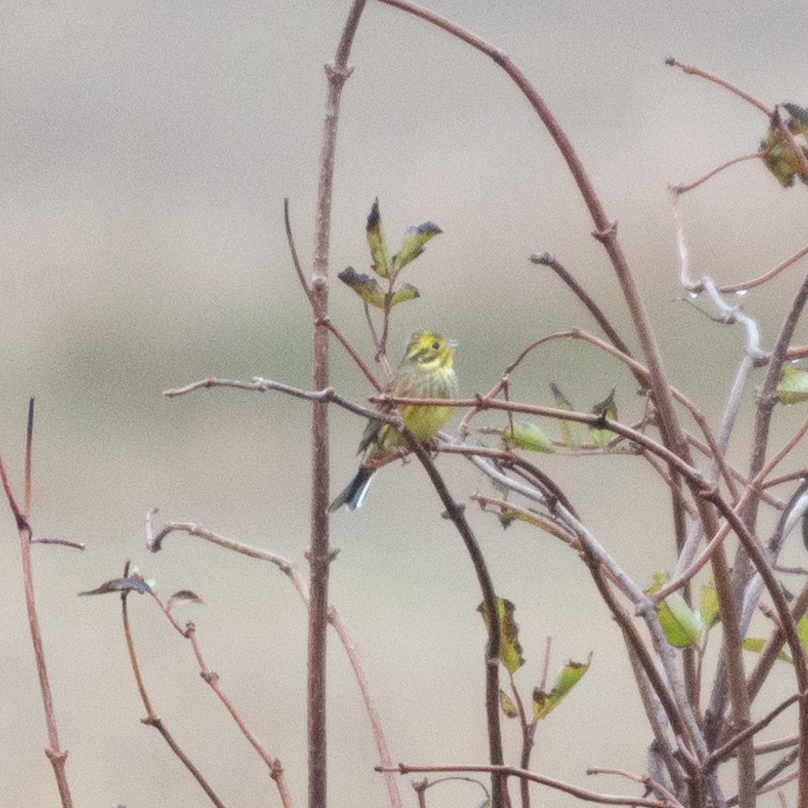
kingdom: Animalia
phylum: Chordata
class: Aves
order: Passeriformes
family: Emberizidae
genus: Emberiza
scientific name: Emberiza citrinella
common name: Yellowhammer
